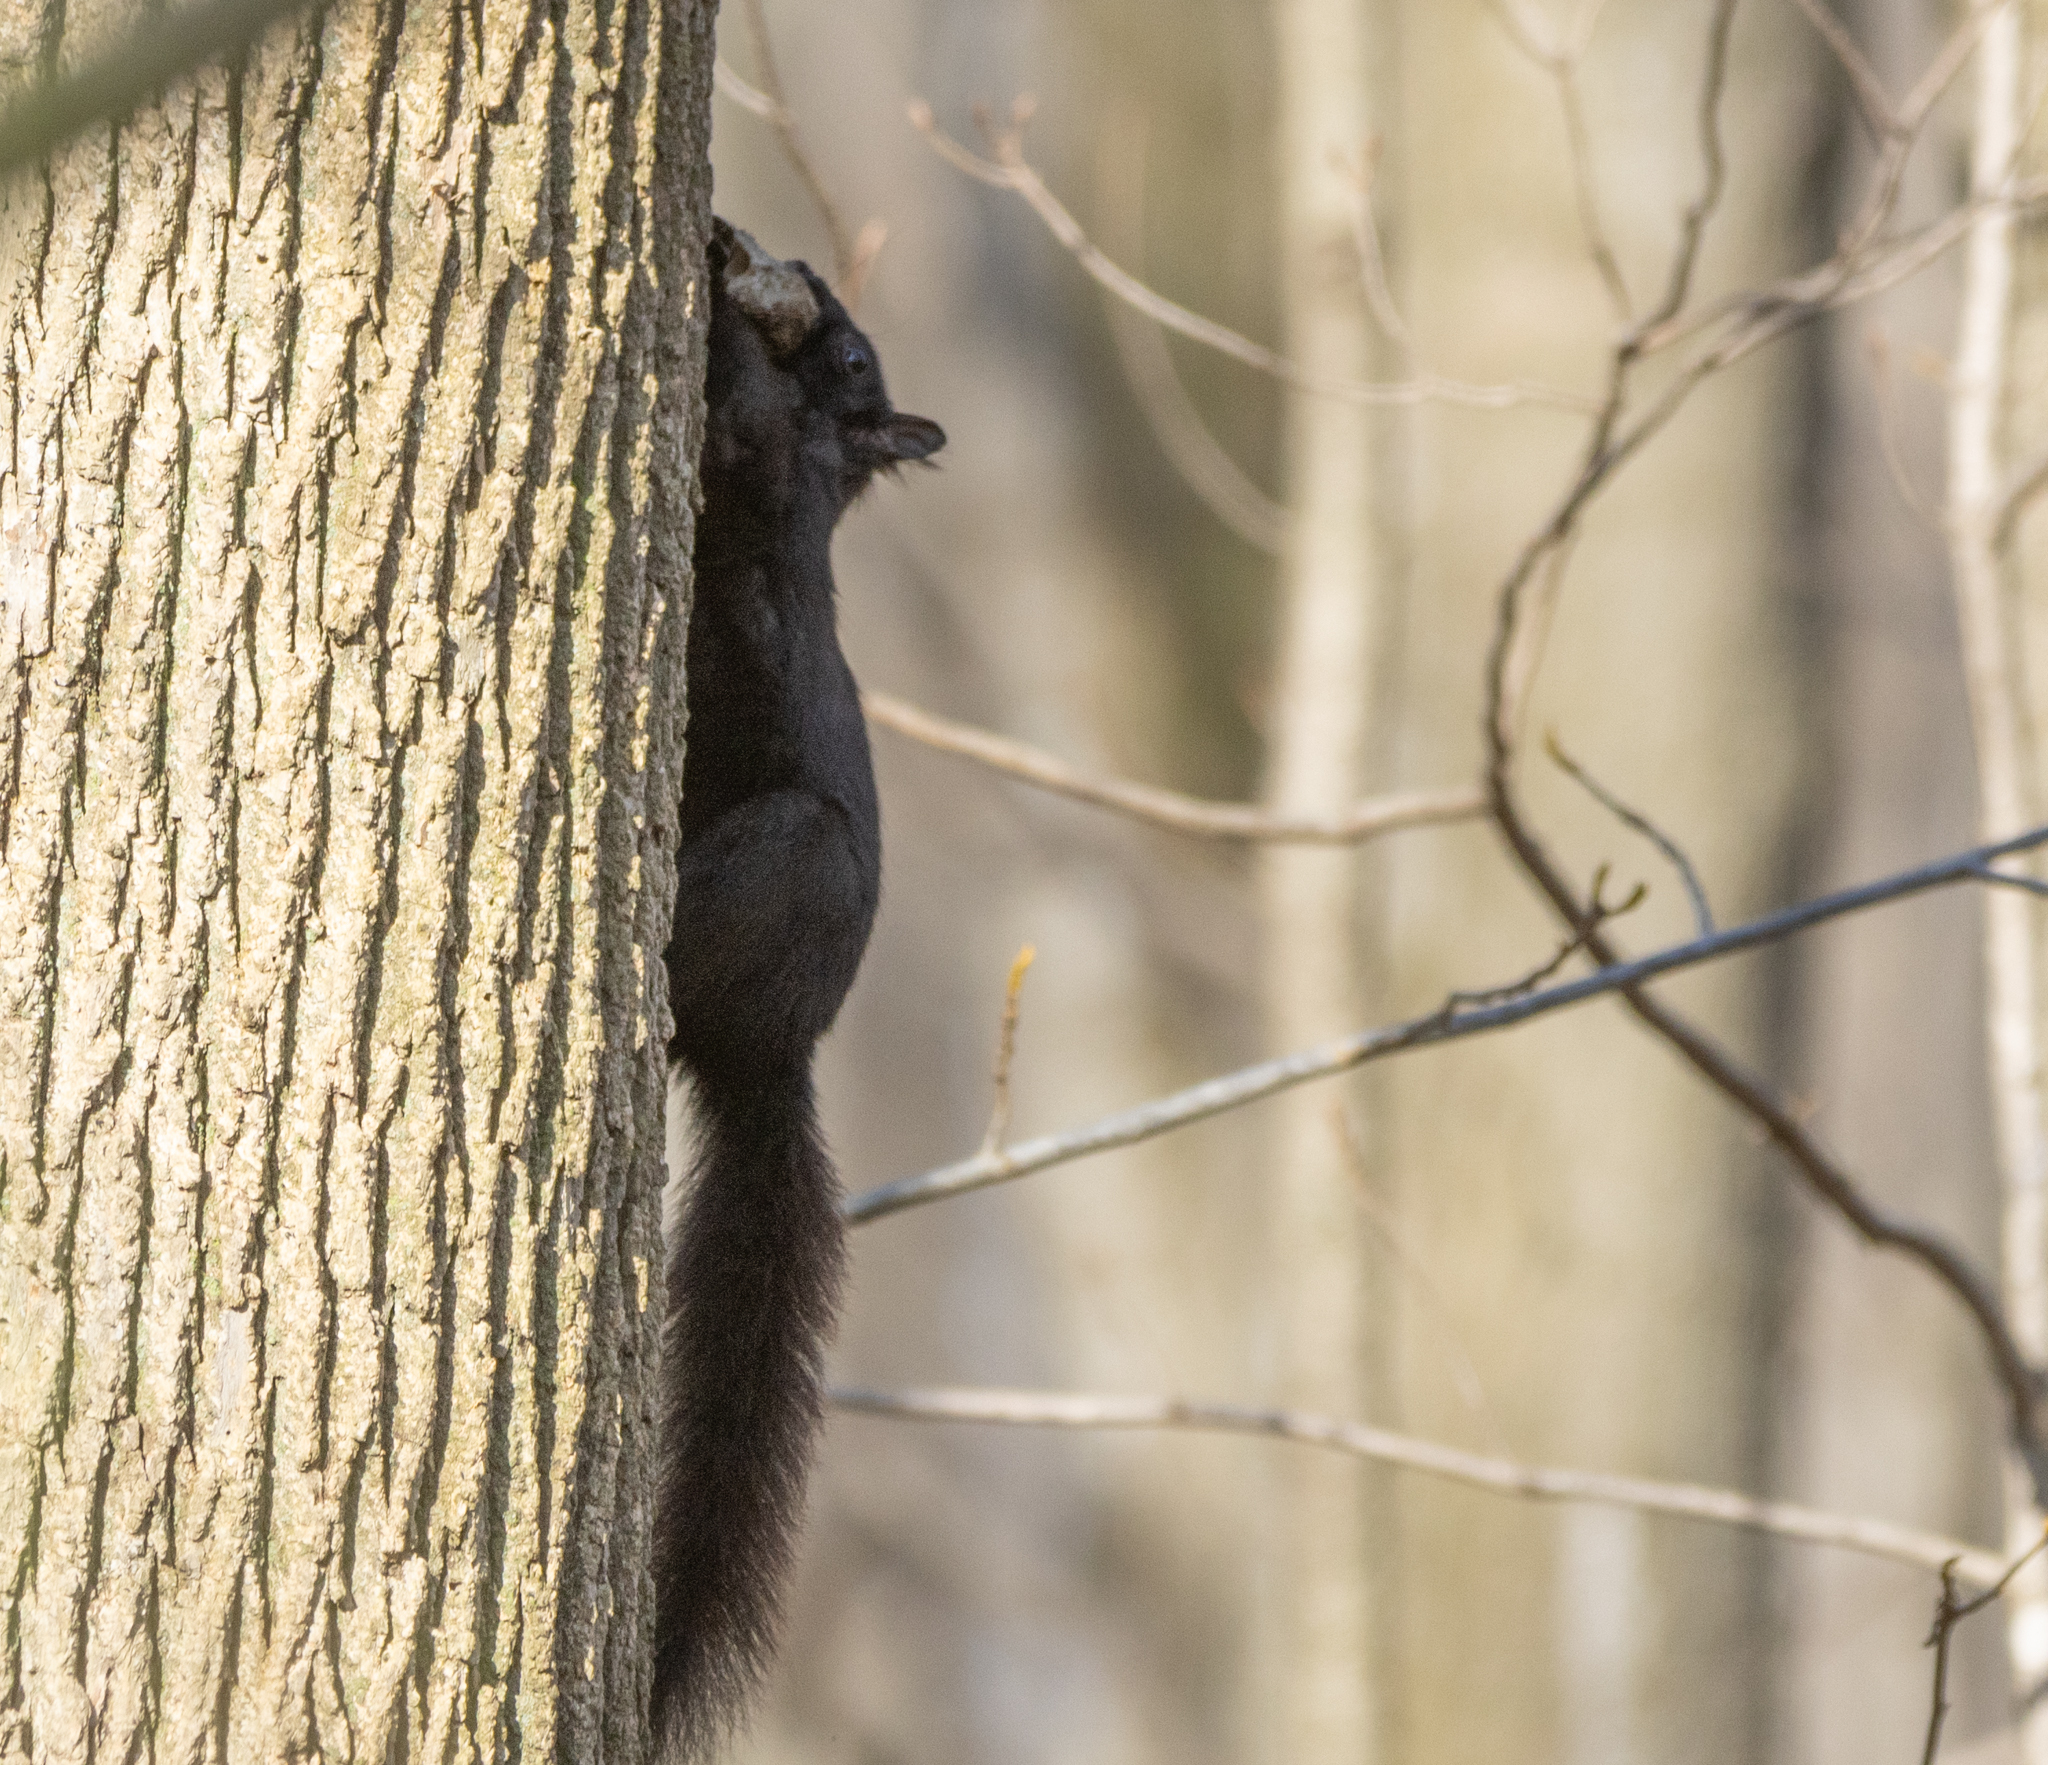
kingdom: Animalia
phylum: Chordata
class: Mammalia
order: Rodentia
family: Sciuridae
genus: Sciurus
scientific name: Sciurus carolinensis
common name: Eastern gray squirrel
